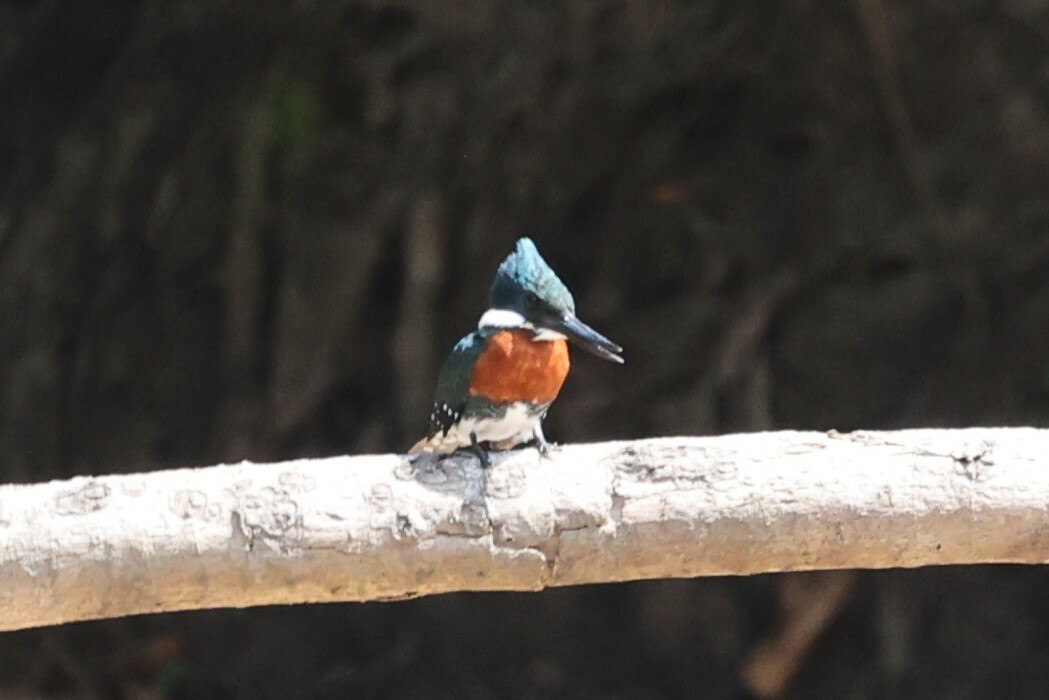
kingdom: Animalia
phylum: Chordata
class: Aves
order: Coraciiformes
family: Alcedinidae
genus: Chloroceryle
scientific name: Chloroceryle americana
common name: Green kingfisher
